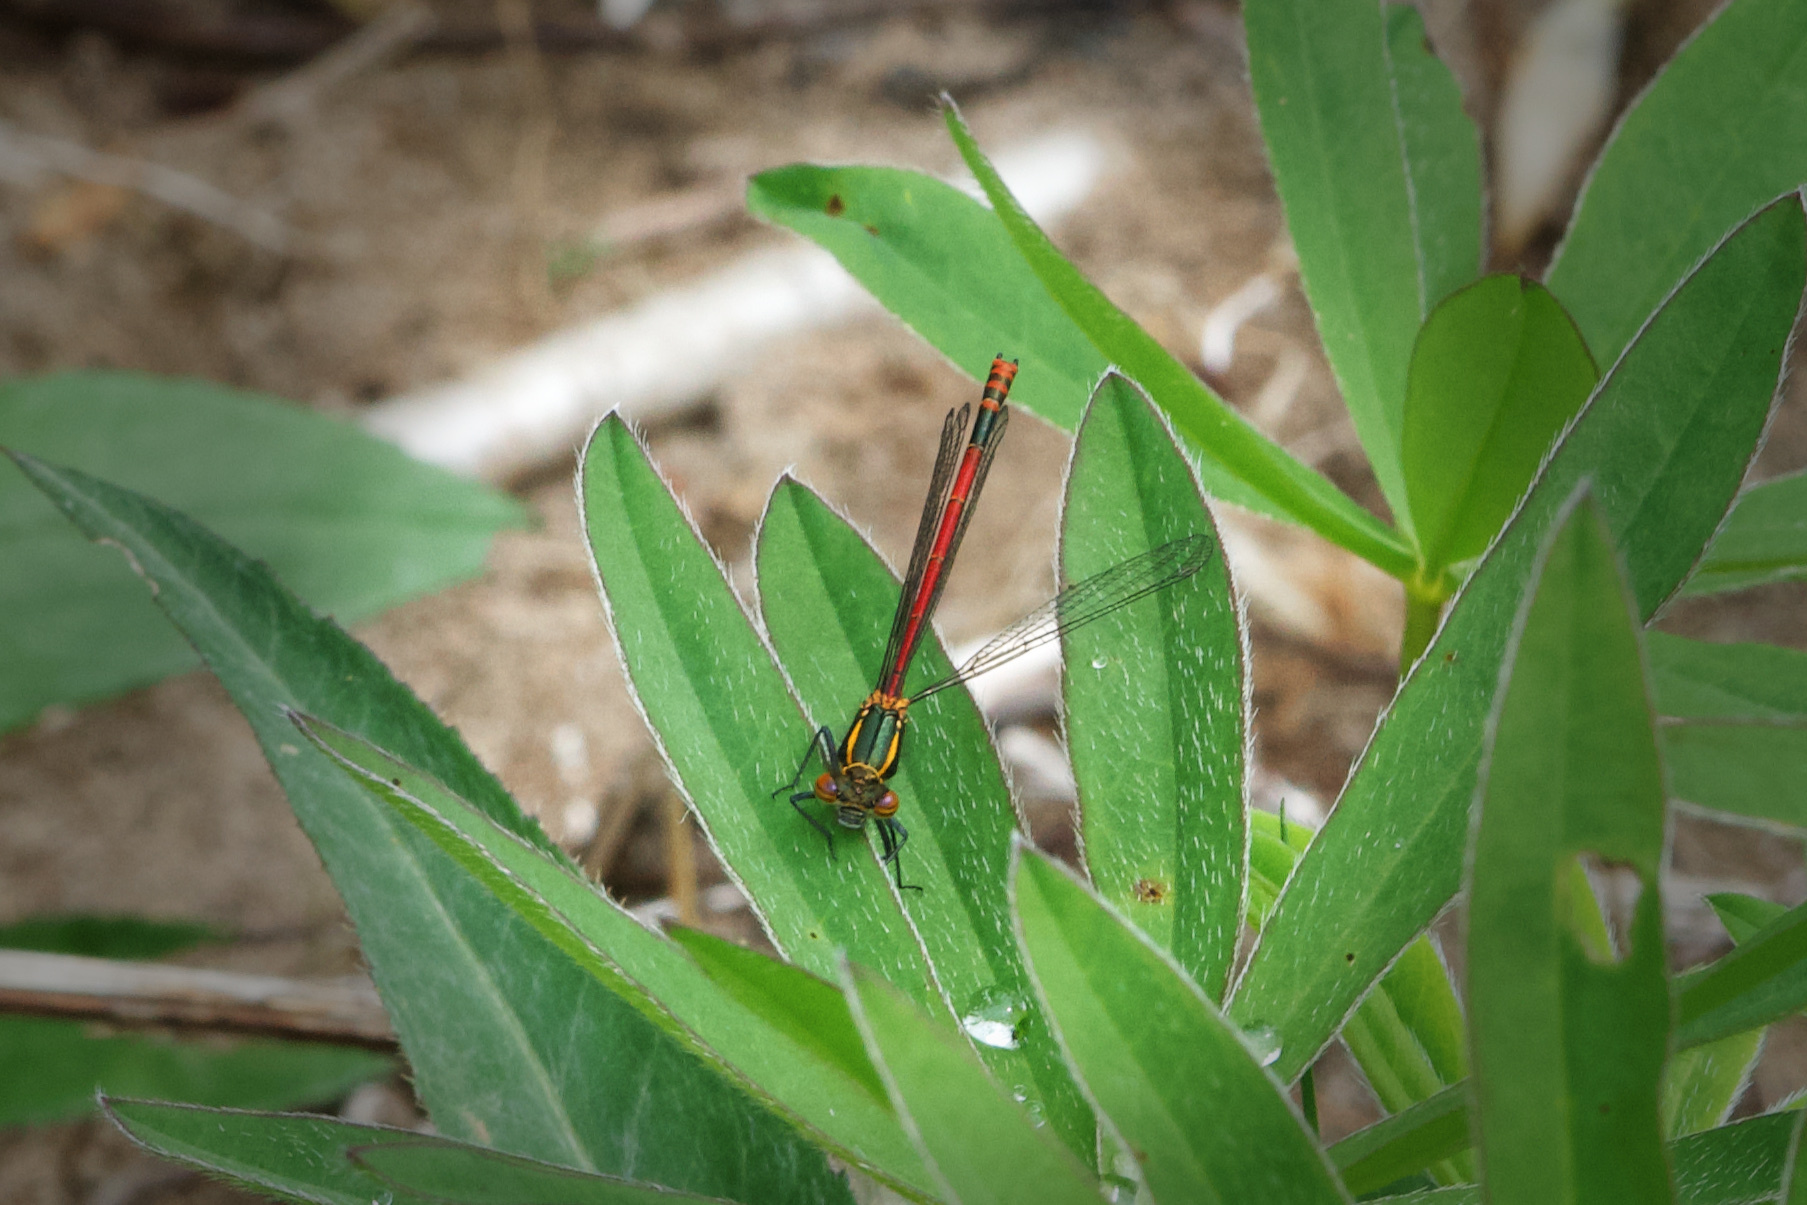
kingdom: Animalia
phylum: Arthropoda
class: Insecta
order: Odonata
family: Coenagrionidae
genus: Pyrrhosoma
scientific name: Pyrrhosoma nymphula
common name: Large red damsel
